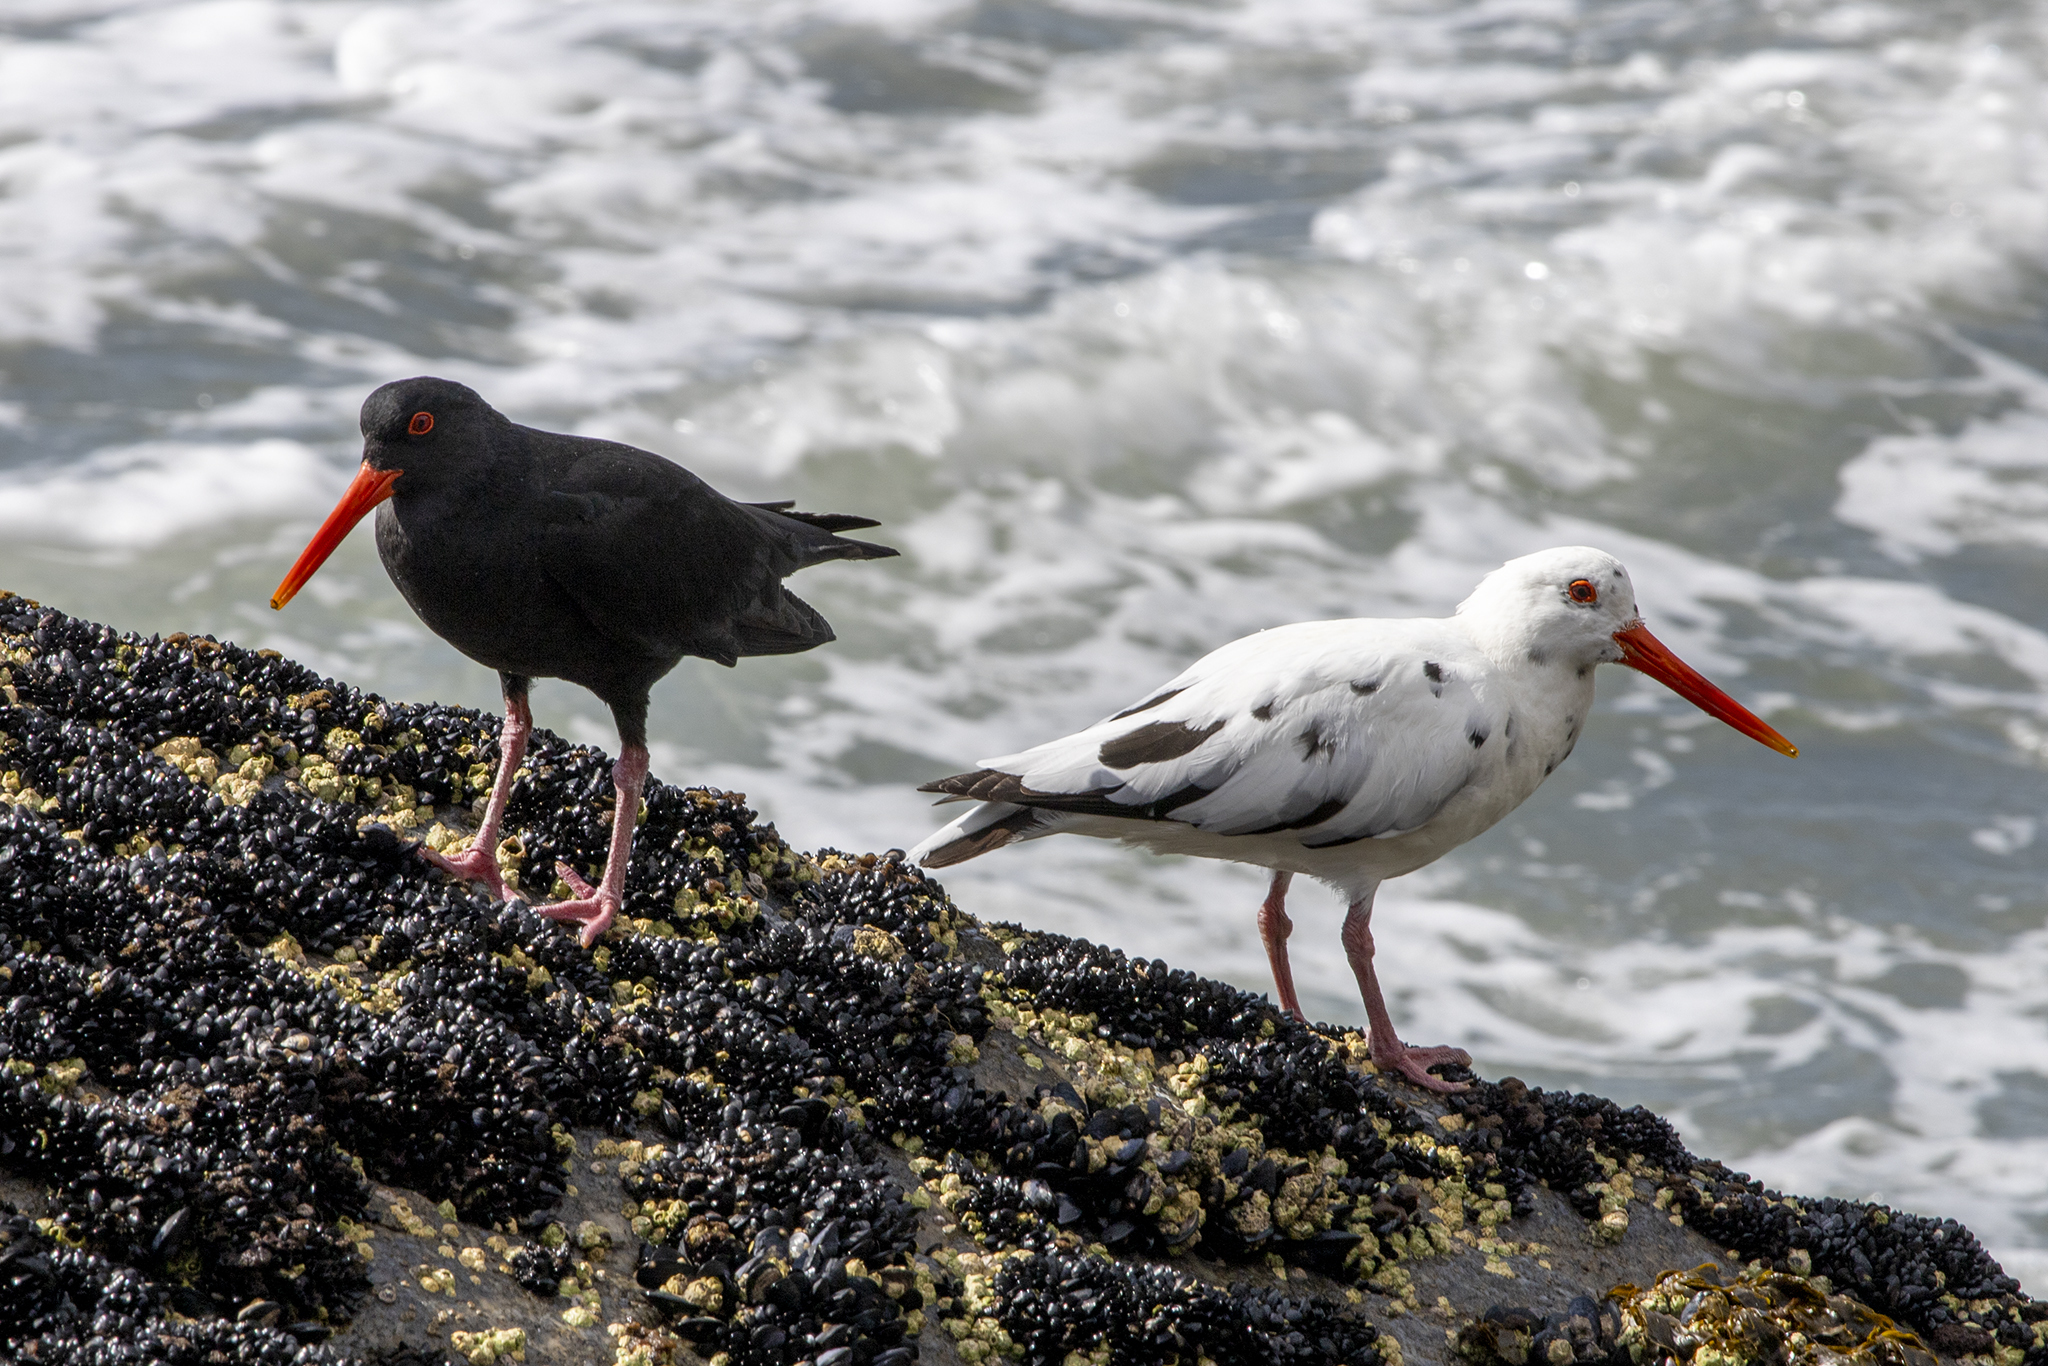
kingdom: Animalia
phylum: Chordata
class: Aves
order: Charadriiformes
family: Haematopodidae
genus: Haematopus
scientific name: Haematopus unicolor
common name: Variable oystercatcher
